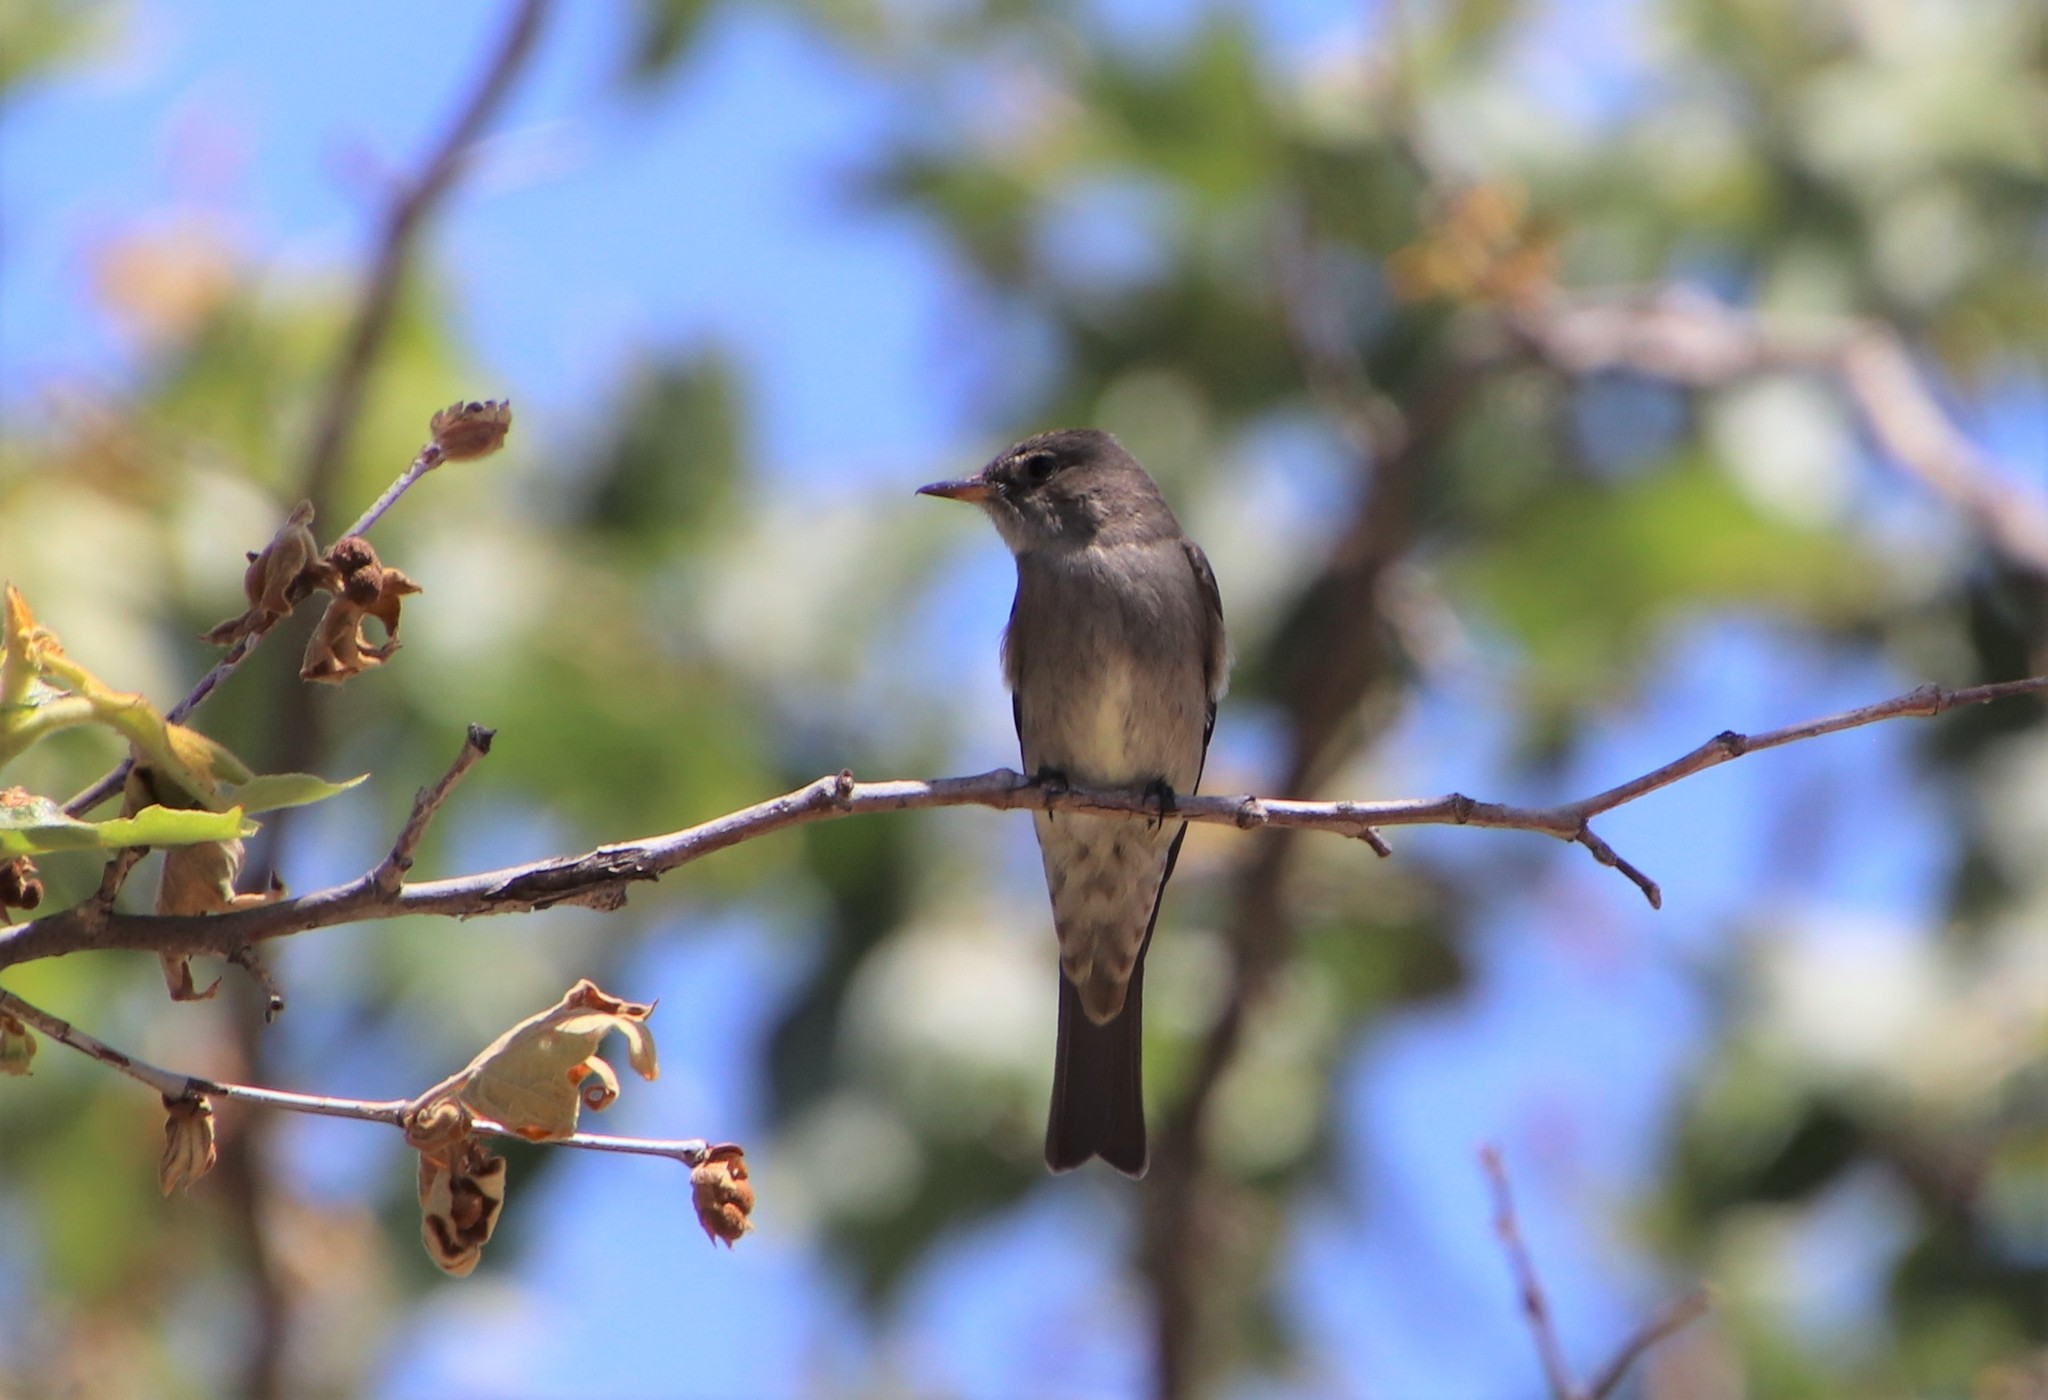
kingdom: Animalia
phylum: Chordata
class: Aves
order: Passeriformes
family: Tyrannidae
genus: Contopus
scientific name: Contopus sordidulus
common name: Western wood-pewee
